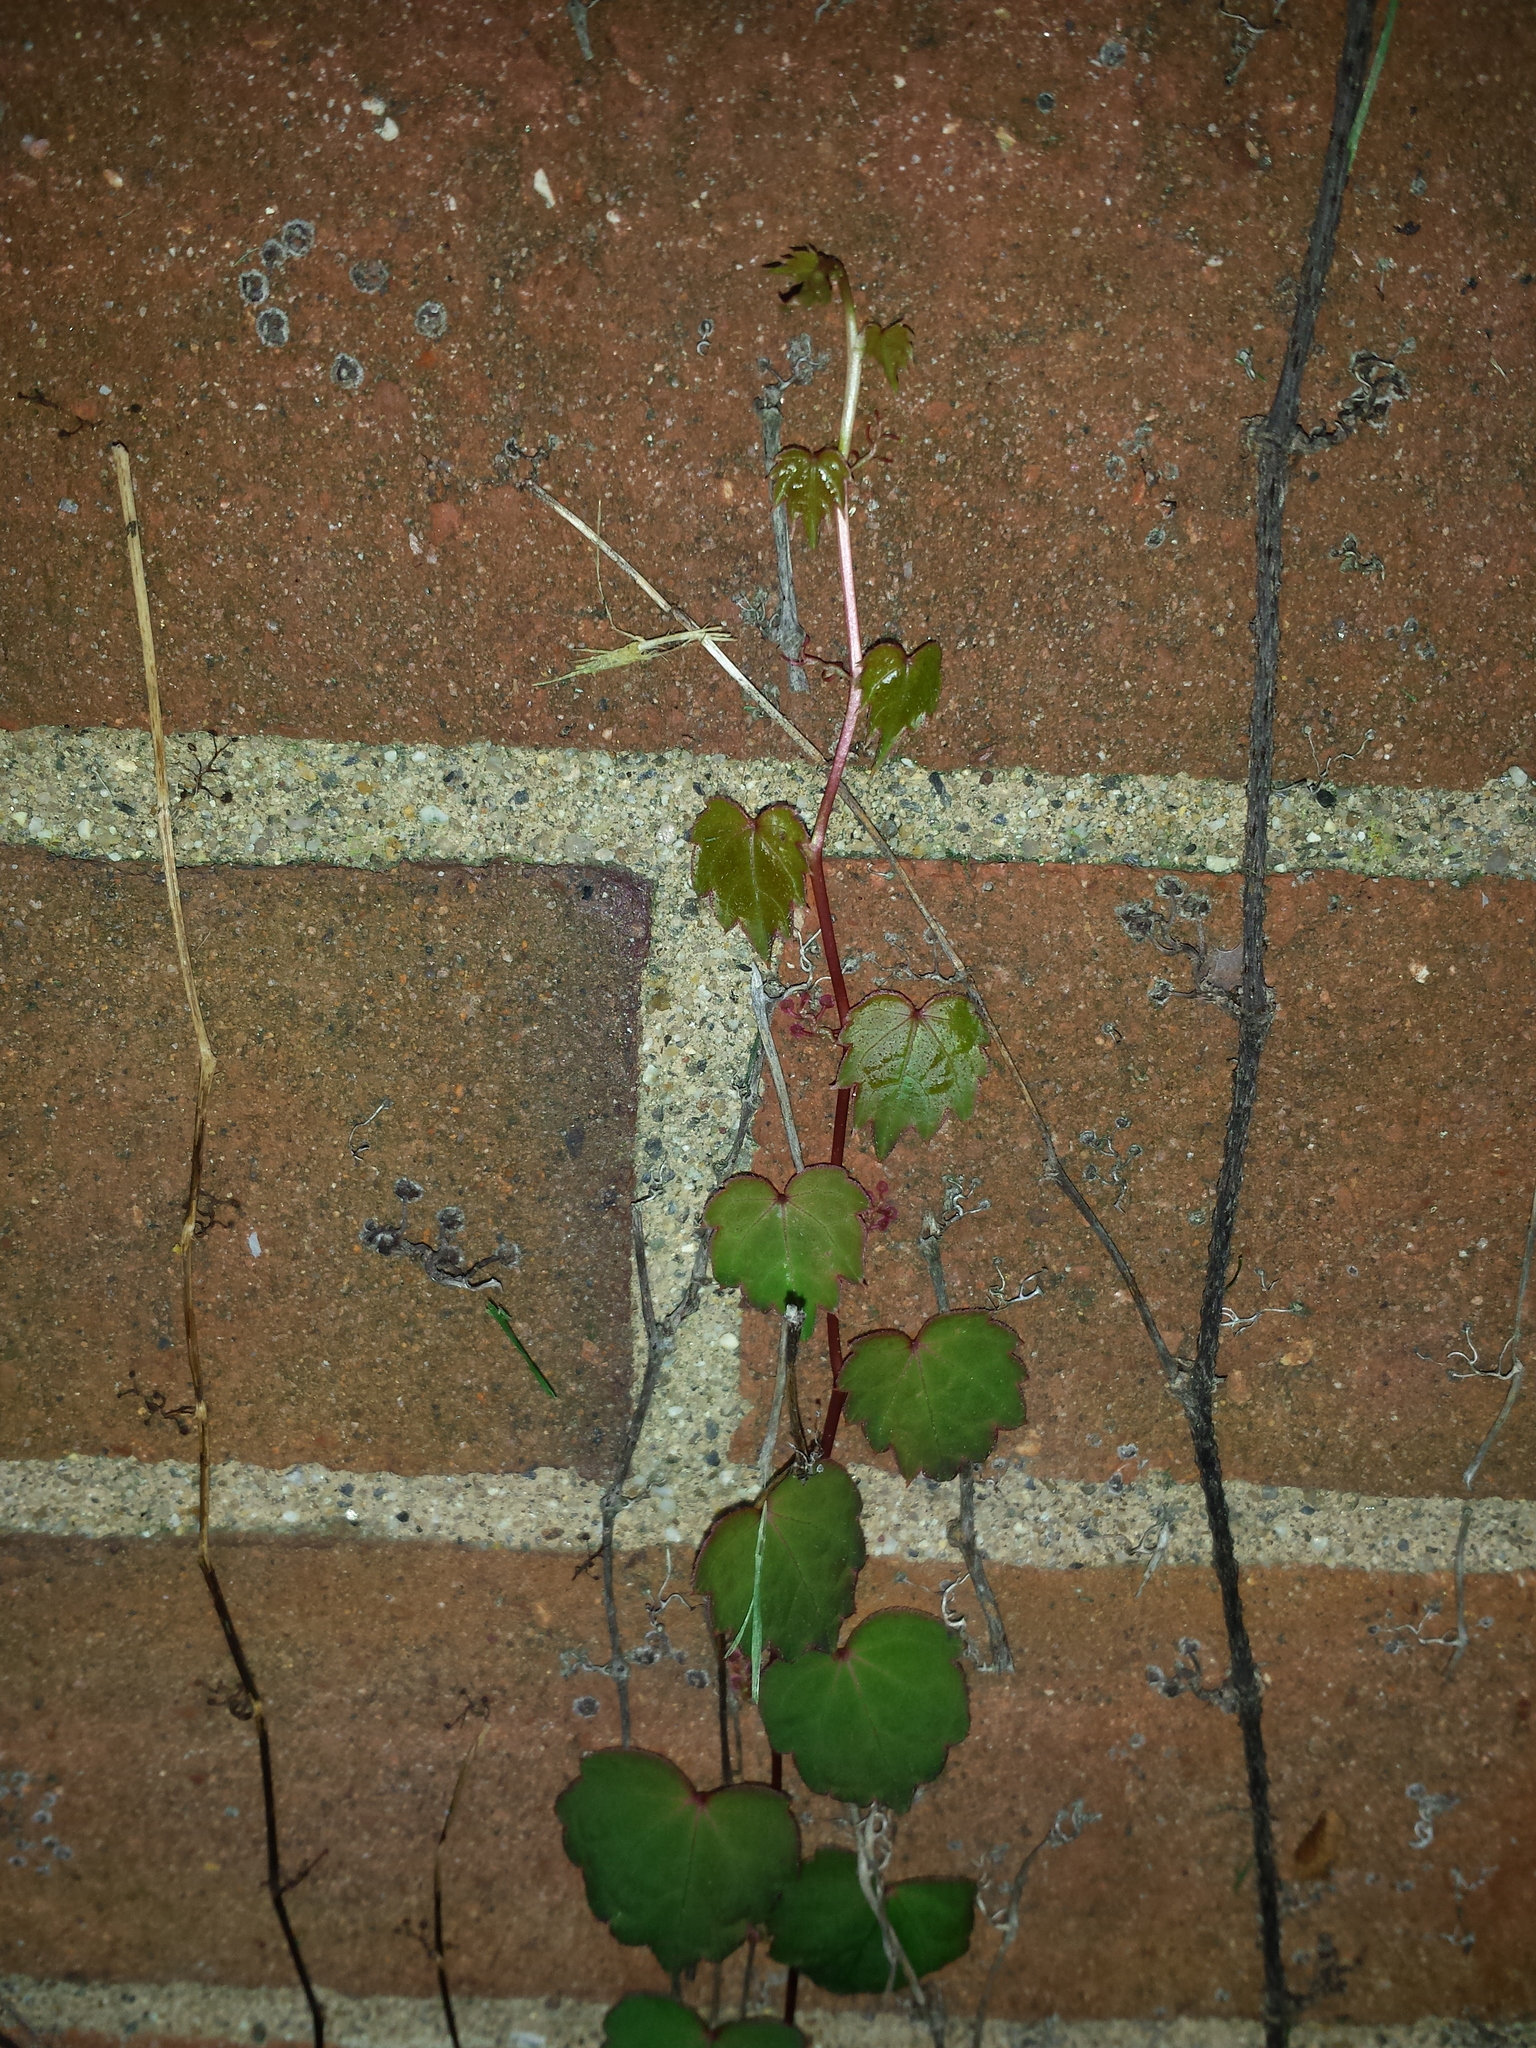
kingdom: Plantae
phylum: Tracheophyta
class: Magnoliopsida
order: Vitales
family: Vitaceae
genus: Parthenocissus
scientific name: Parthenocissus tricuspidata
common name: Boston ivy
